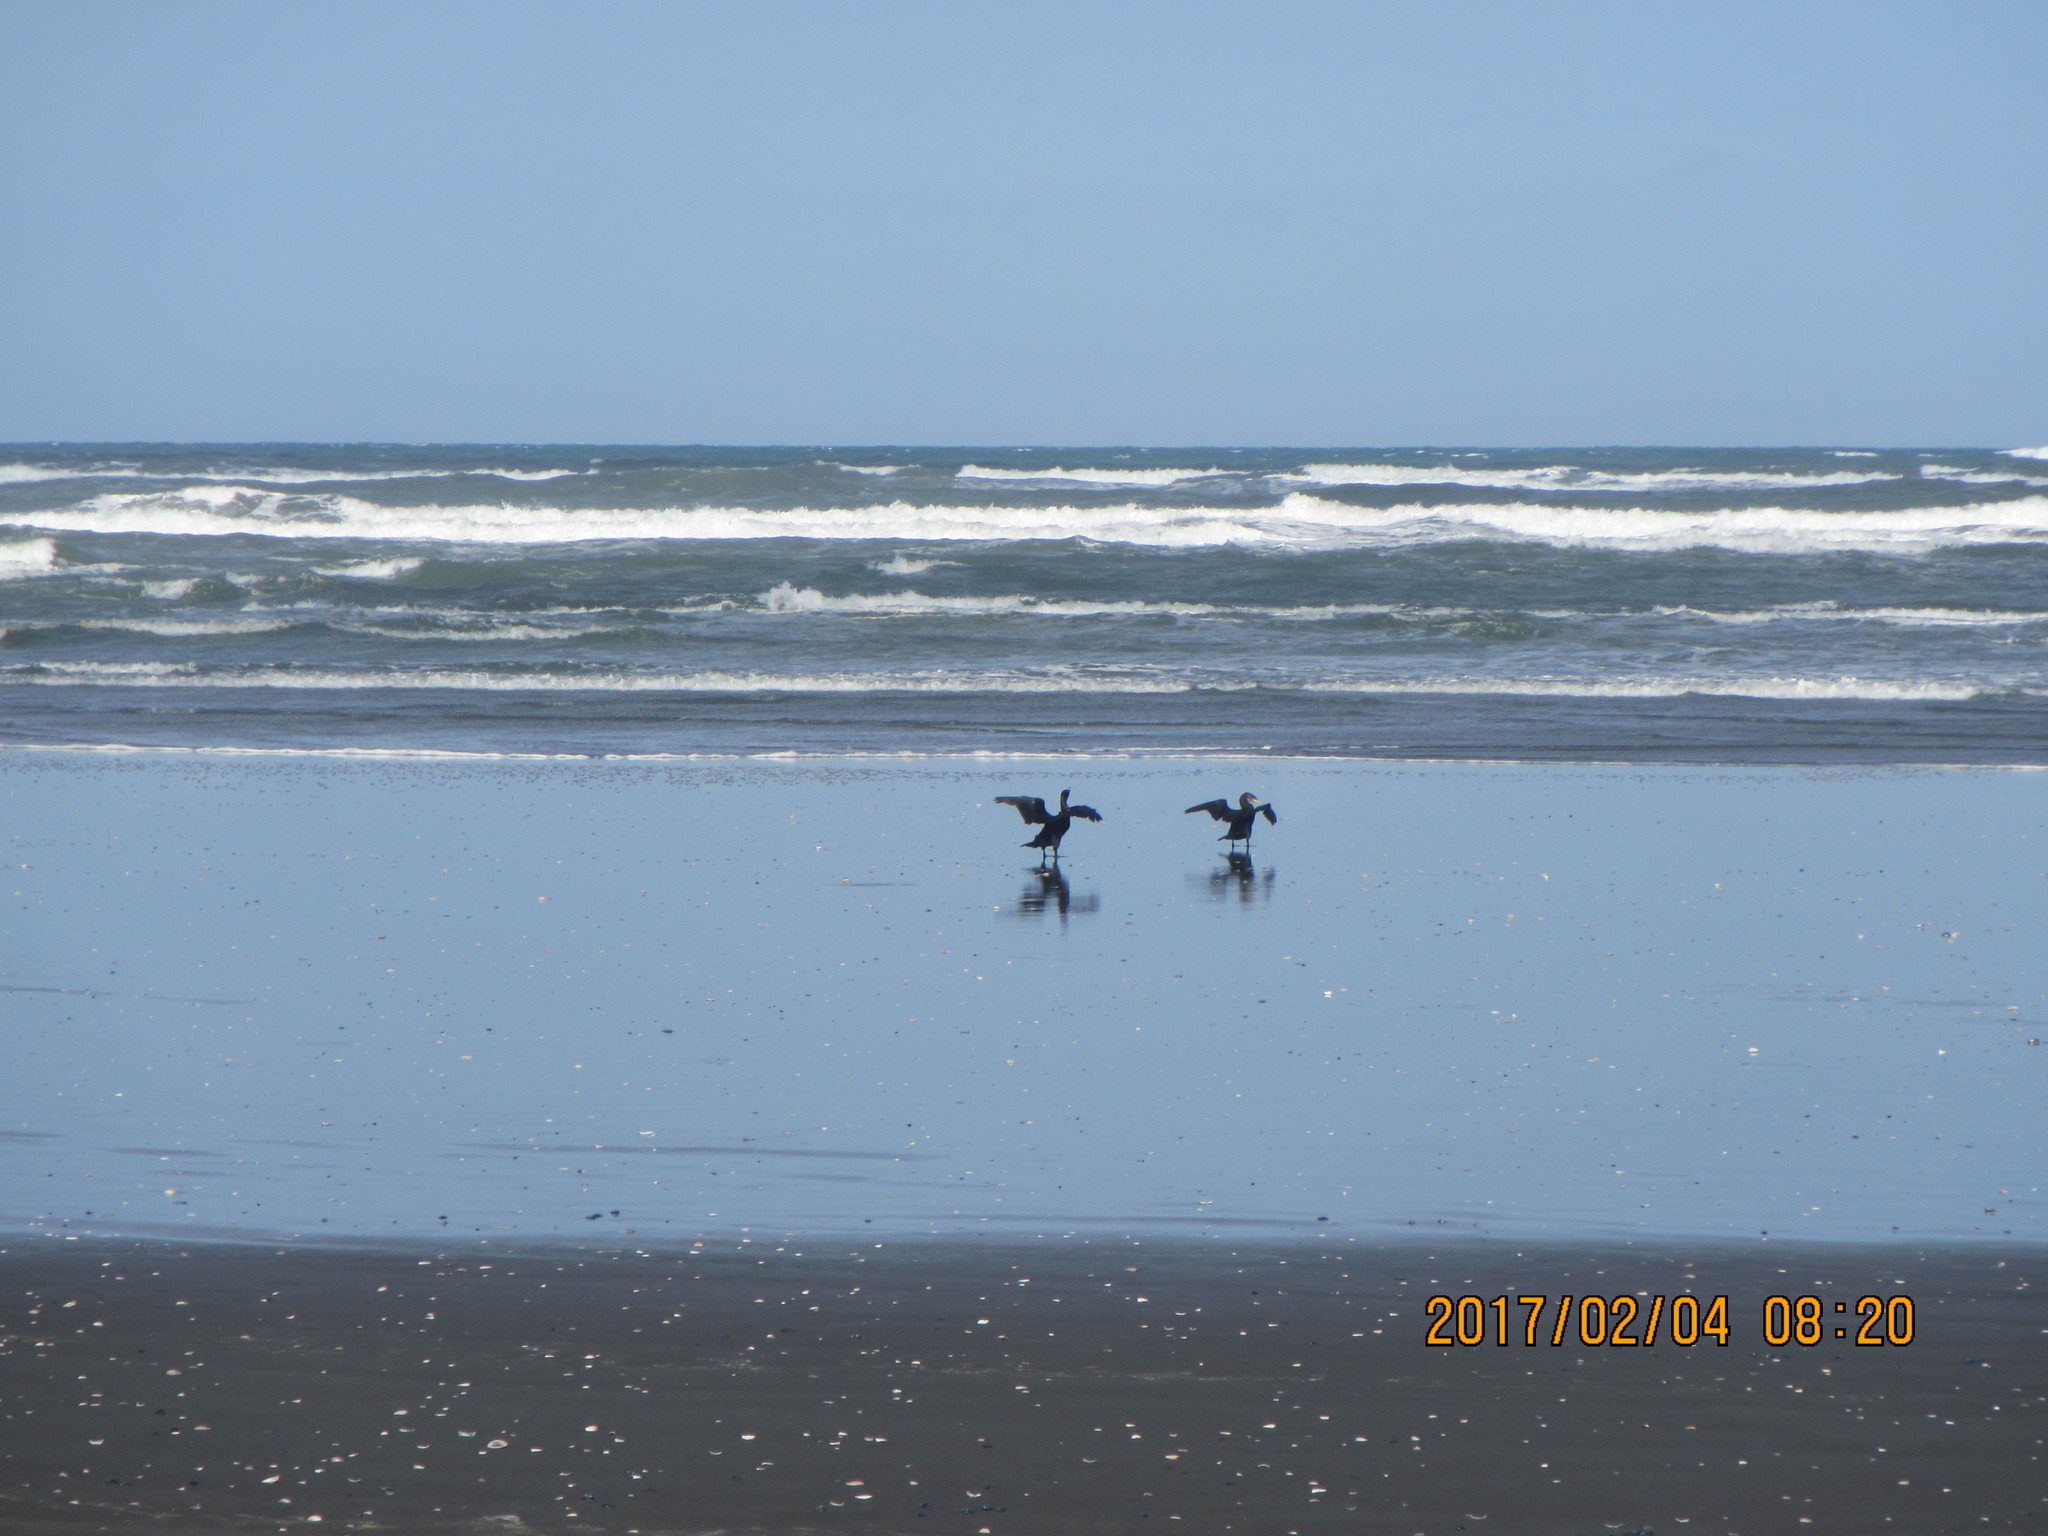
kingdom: Animalia
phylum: Chordata
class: Aves
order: Suliformes
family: Phalacrocoracidae
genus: Phalacrocorax
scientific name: Phalacrocorax carbo
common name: Great cormorant
